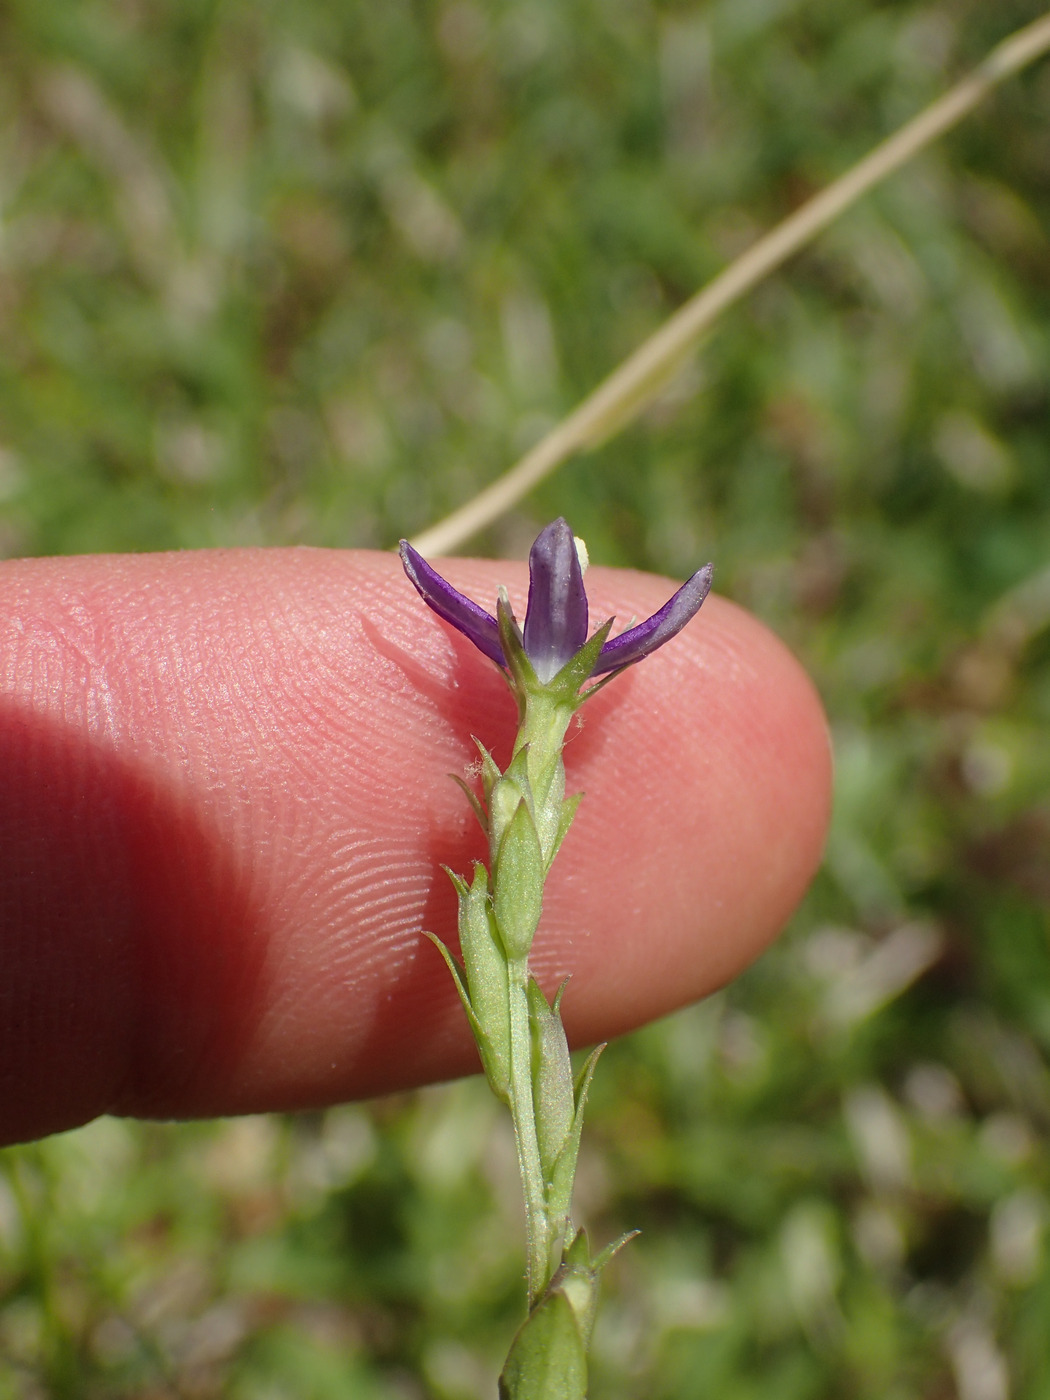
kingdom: Plantae
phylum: Tracheophyta
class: Magnoliopsida
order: Asterales
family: Campanulaceae
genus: Triodanis
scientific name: Triodanis biflora
